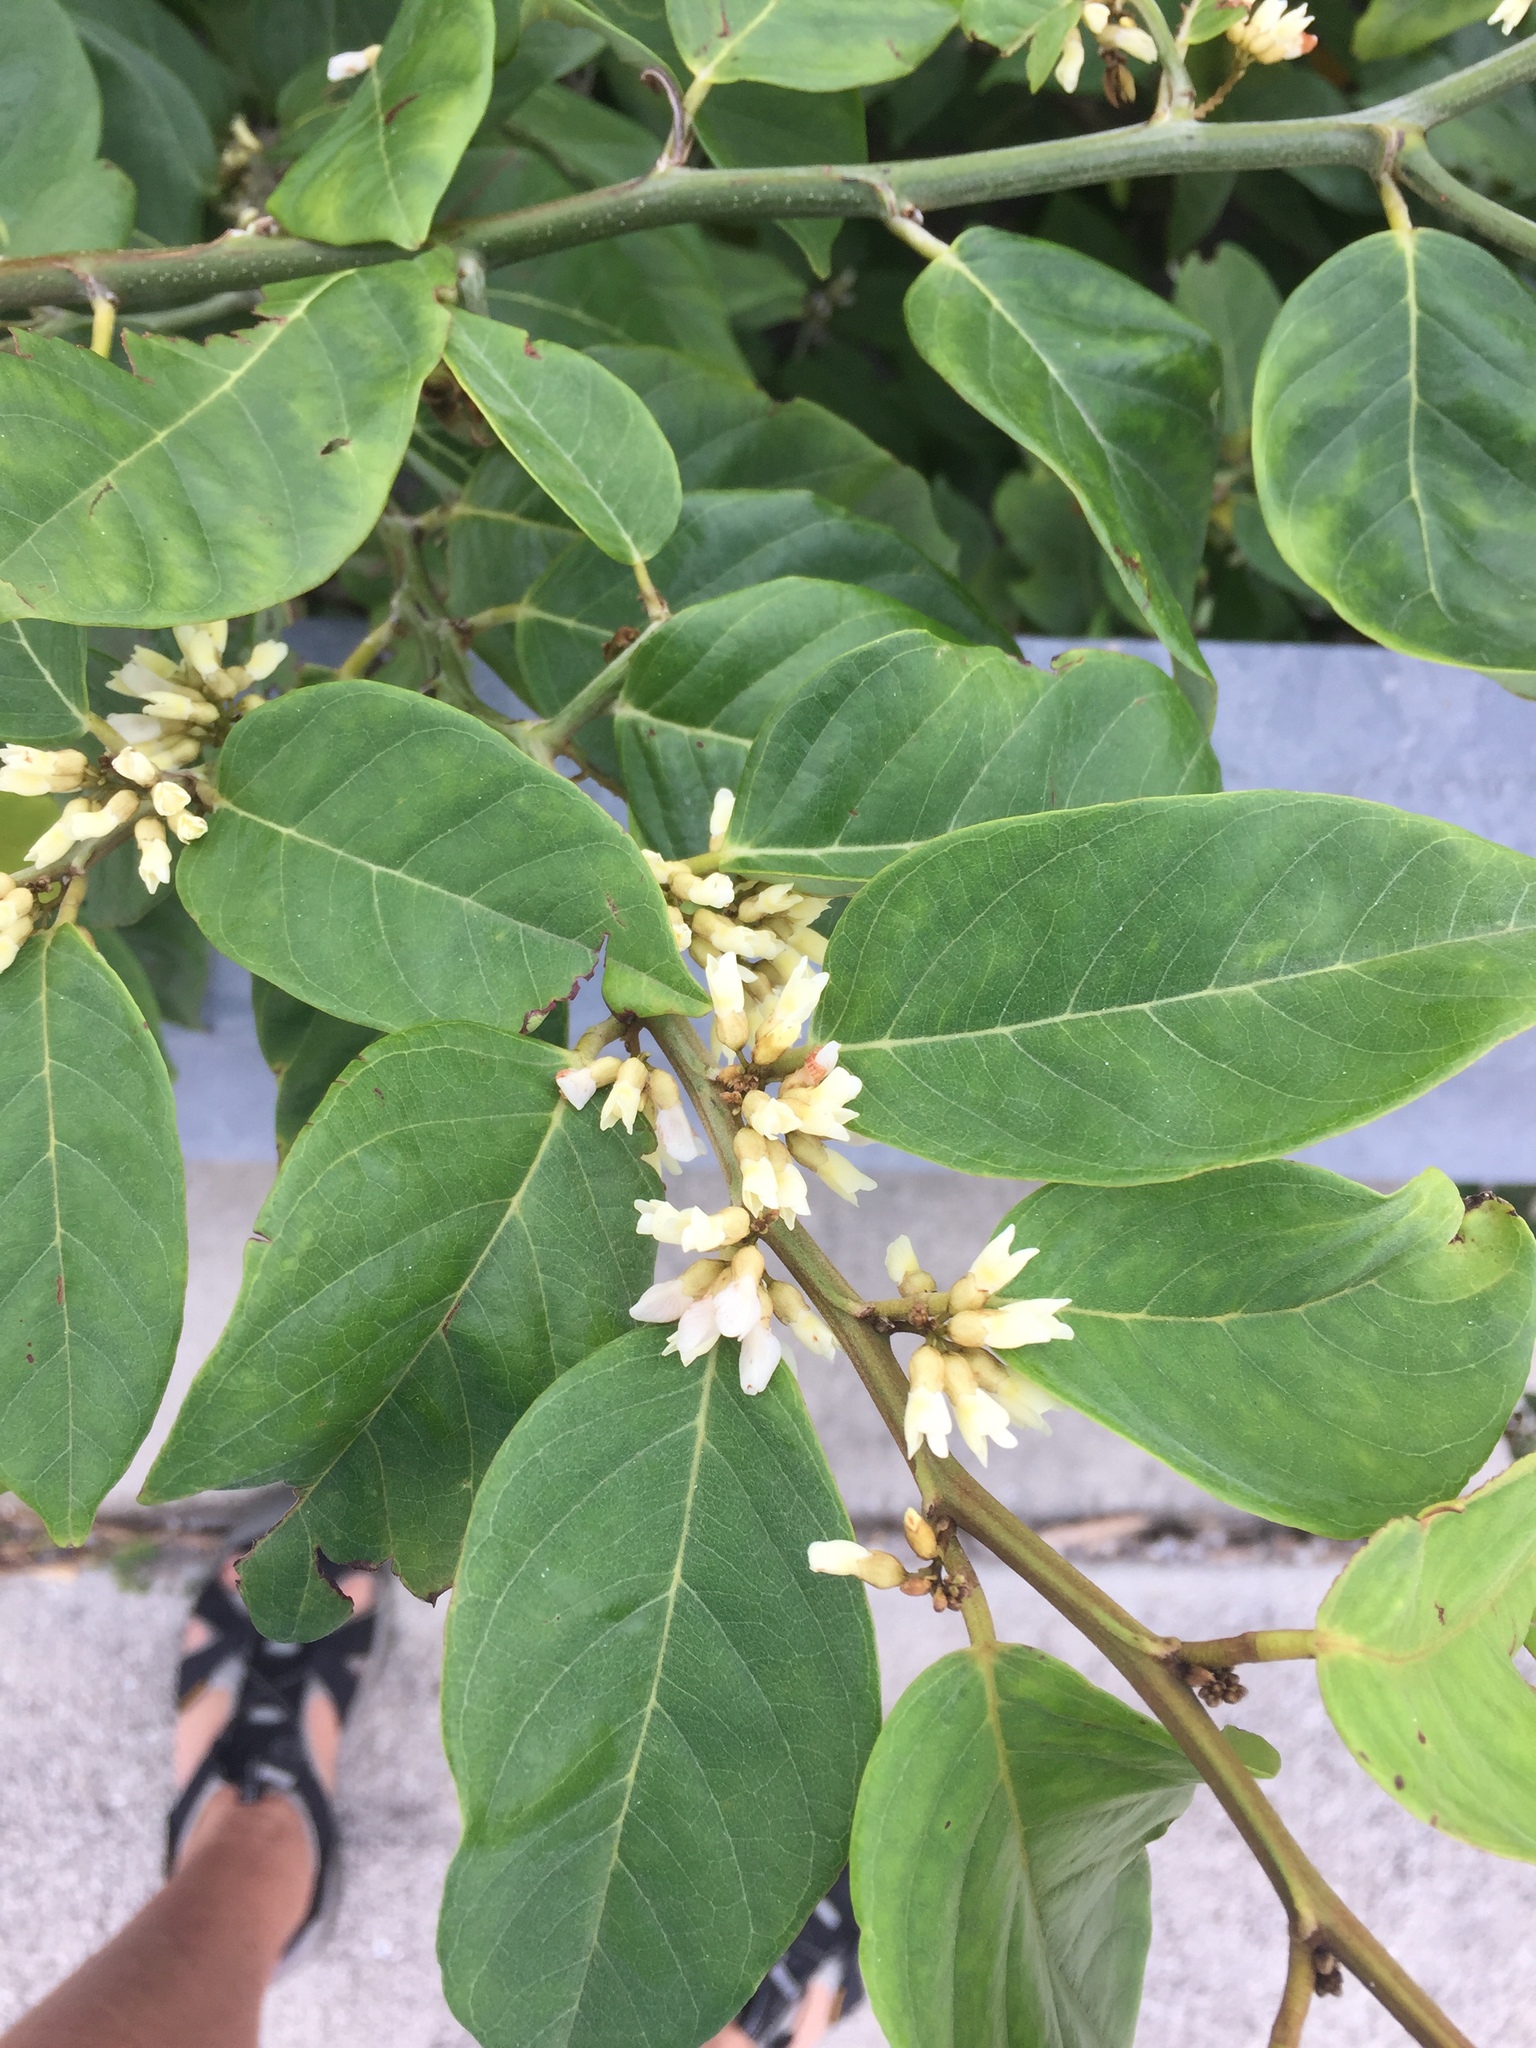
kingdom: Plantae
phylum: Tracheophyta
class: Magnoliopsida
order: Fabales
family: Fabaceae
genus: Dalbergia
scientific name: Dalbergia ecastaphyllum
